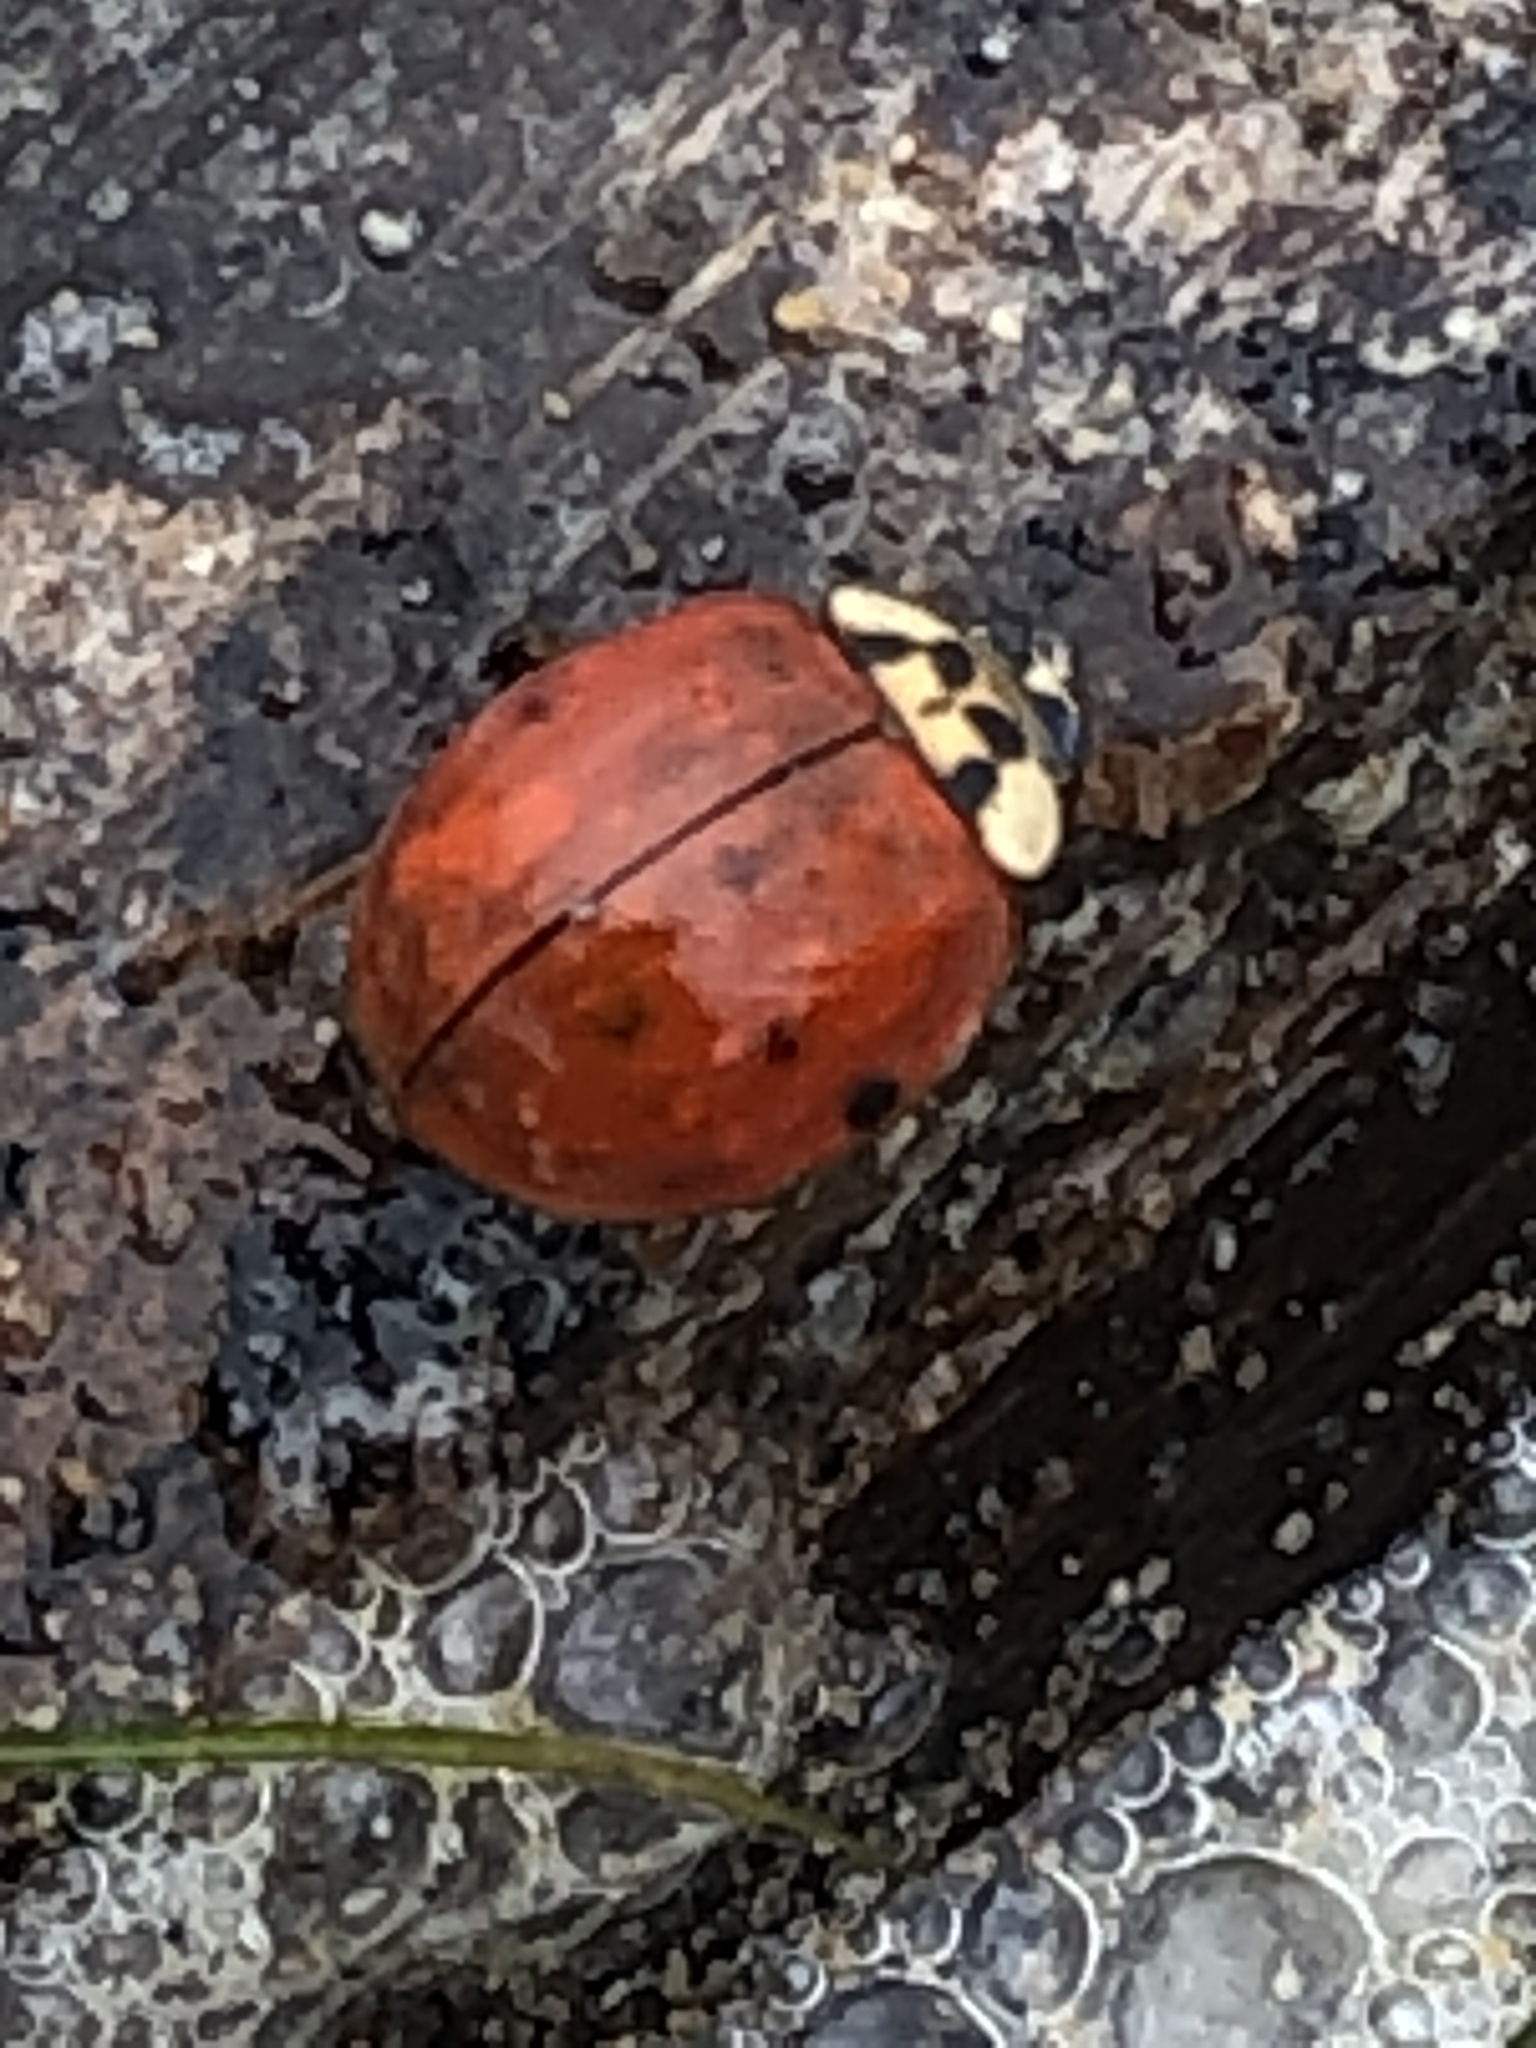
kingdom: Animalia
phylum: Arthropoda
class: Insecta
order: Coleoptera
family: Coccinellidae
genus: Harmonia
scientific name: Harmonia axyridis
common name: Harlequin ladybird
